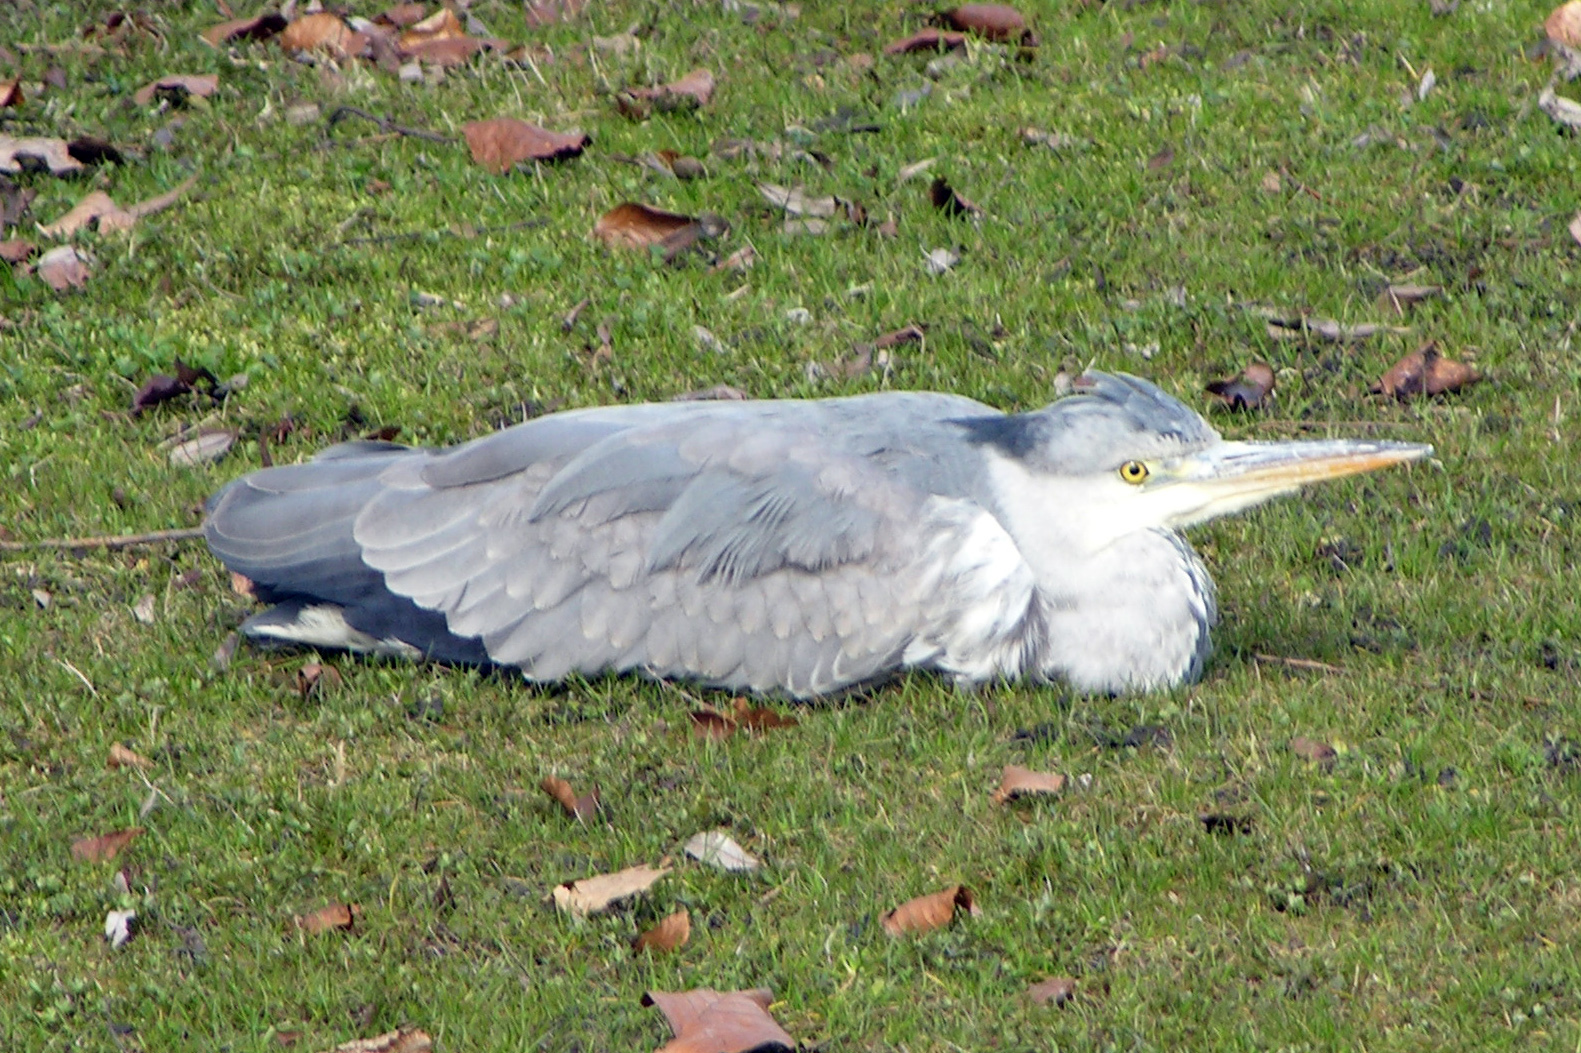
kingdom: Animalia
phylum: Chordata
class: Aves
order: Pelecaniformes
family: Ardeidae
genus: Ardea
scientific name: Ardea cinerea
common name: Grey heron
